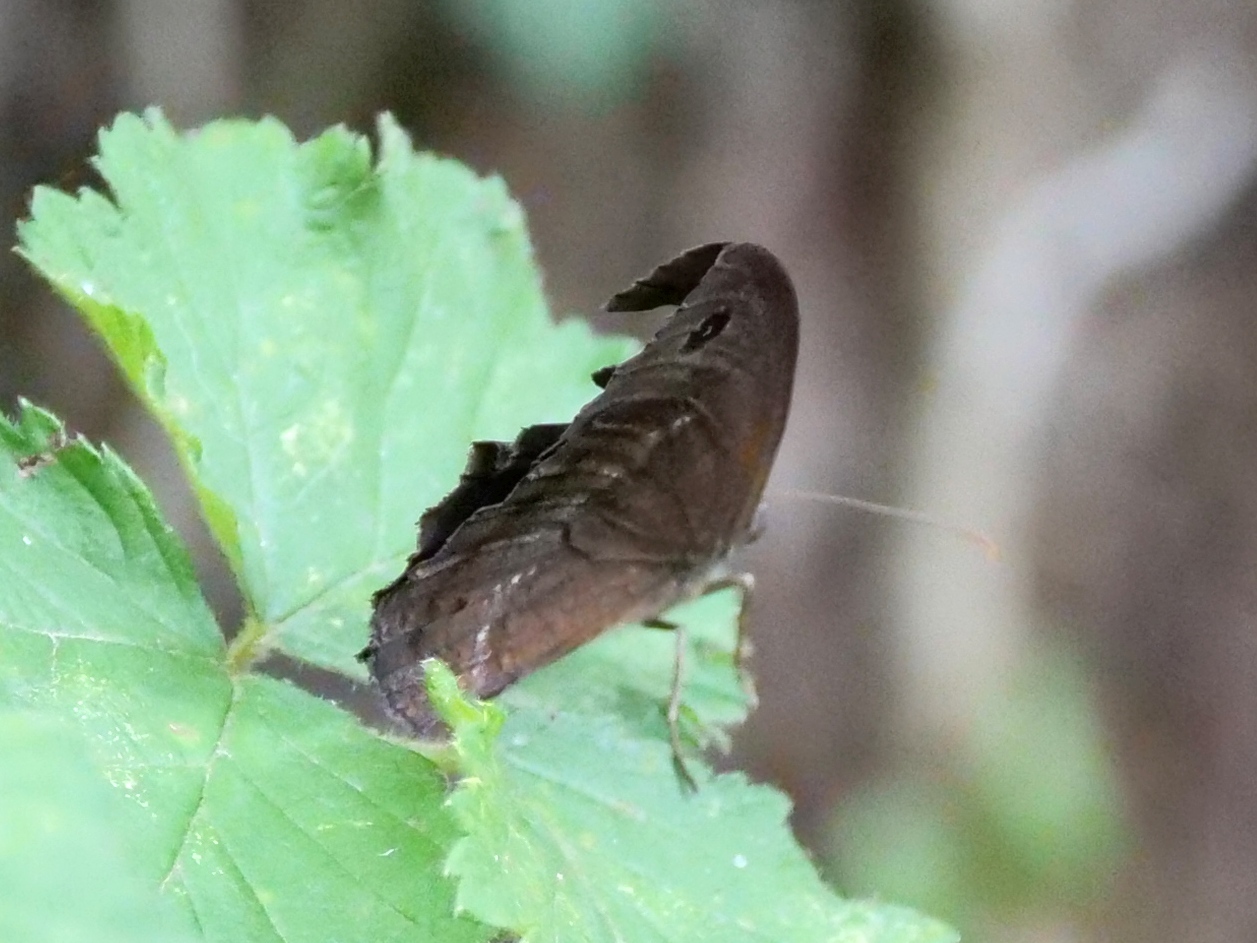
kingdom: Animalia
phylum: Arthropoda
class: Insecta
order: Lepidoptera
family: Nymphalidae
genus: Minois
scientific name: Minois dryas
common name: Dryad
